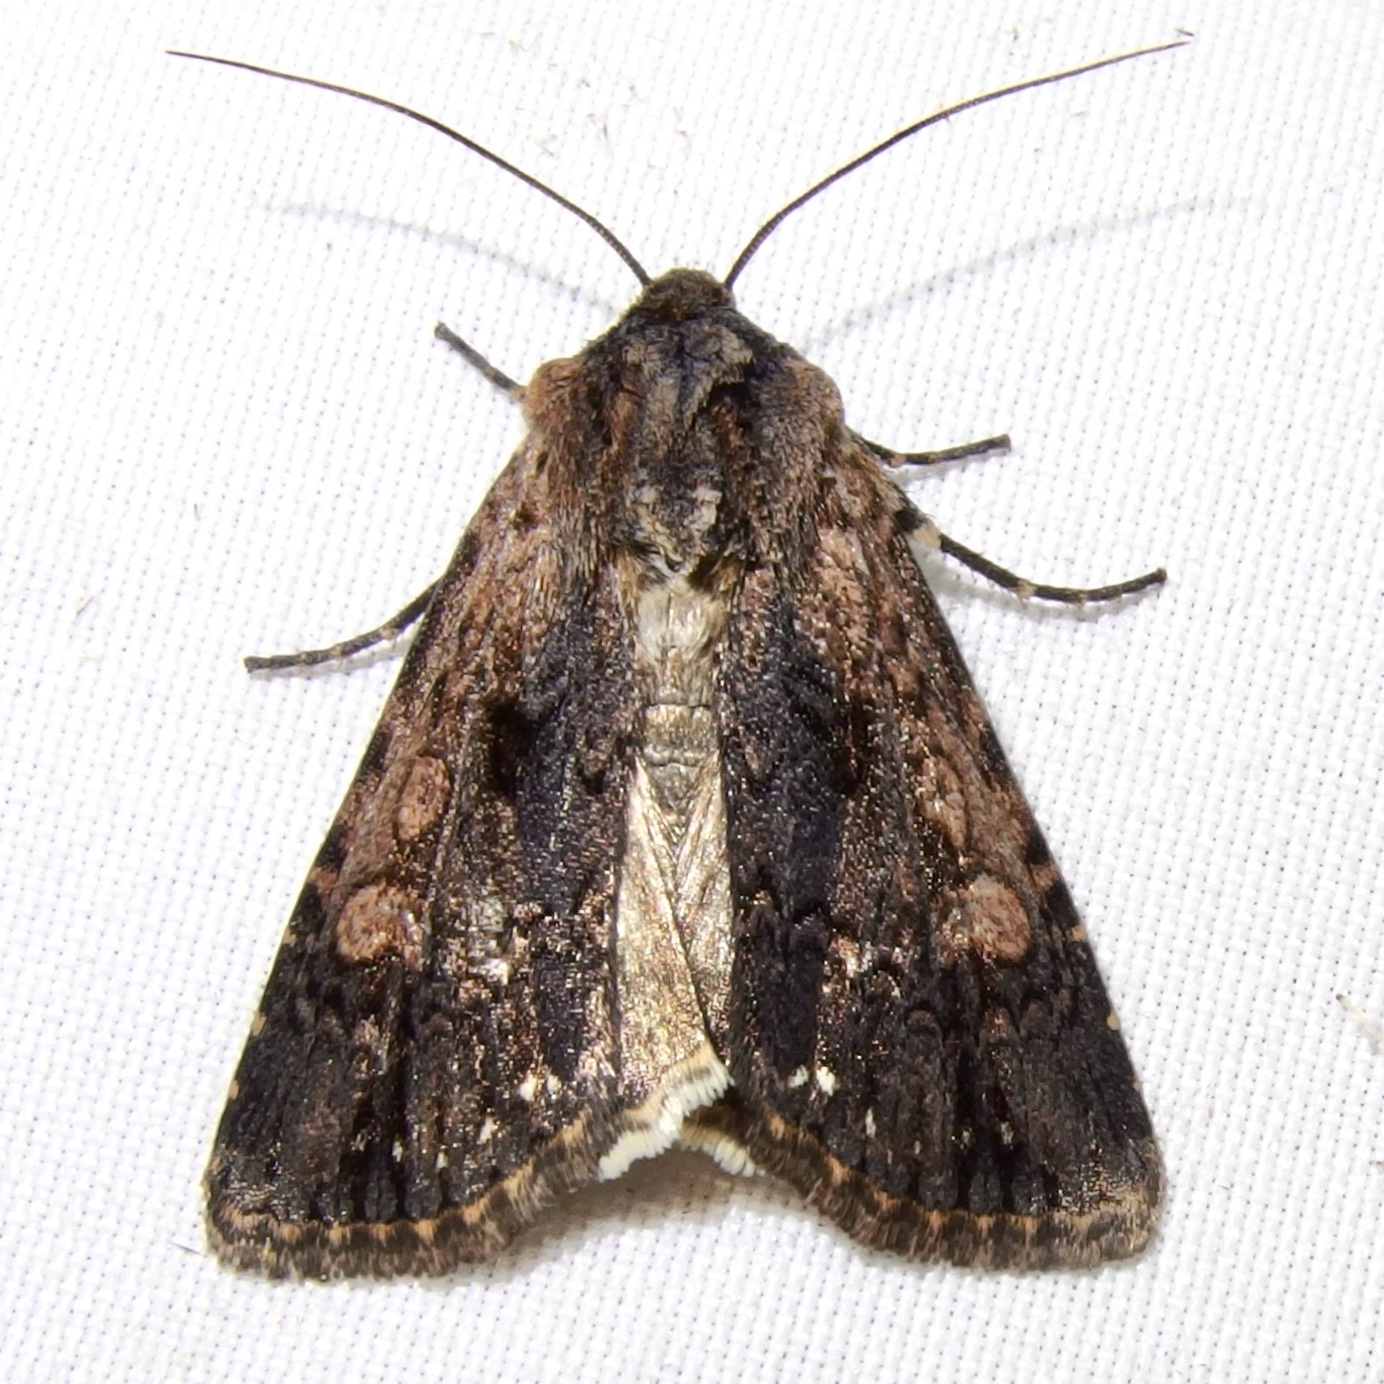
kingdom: Animalia
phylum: Arthropoda
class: Insecta
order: Lepidoptera
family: Noctuidae
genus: Dichagyris
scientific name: Dichagyris proclivis
